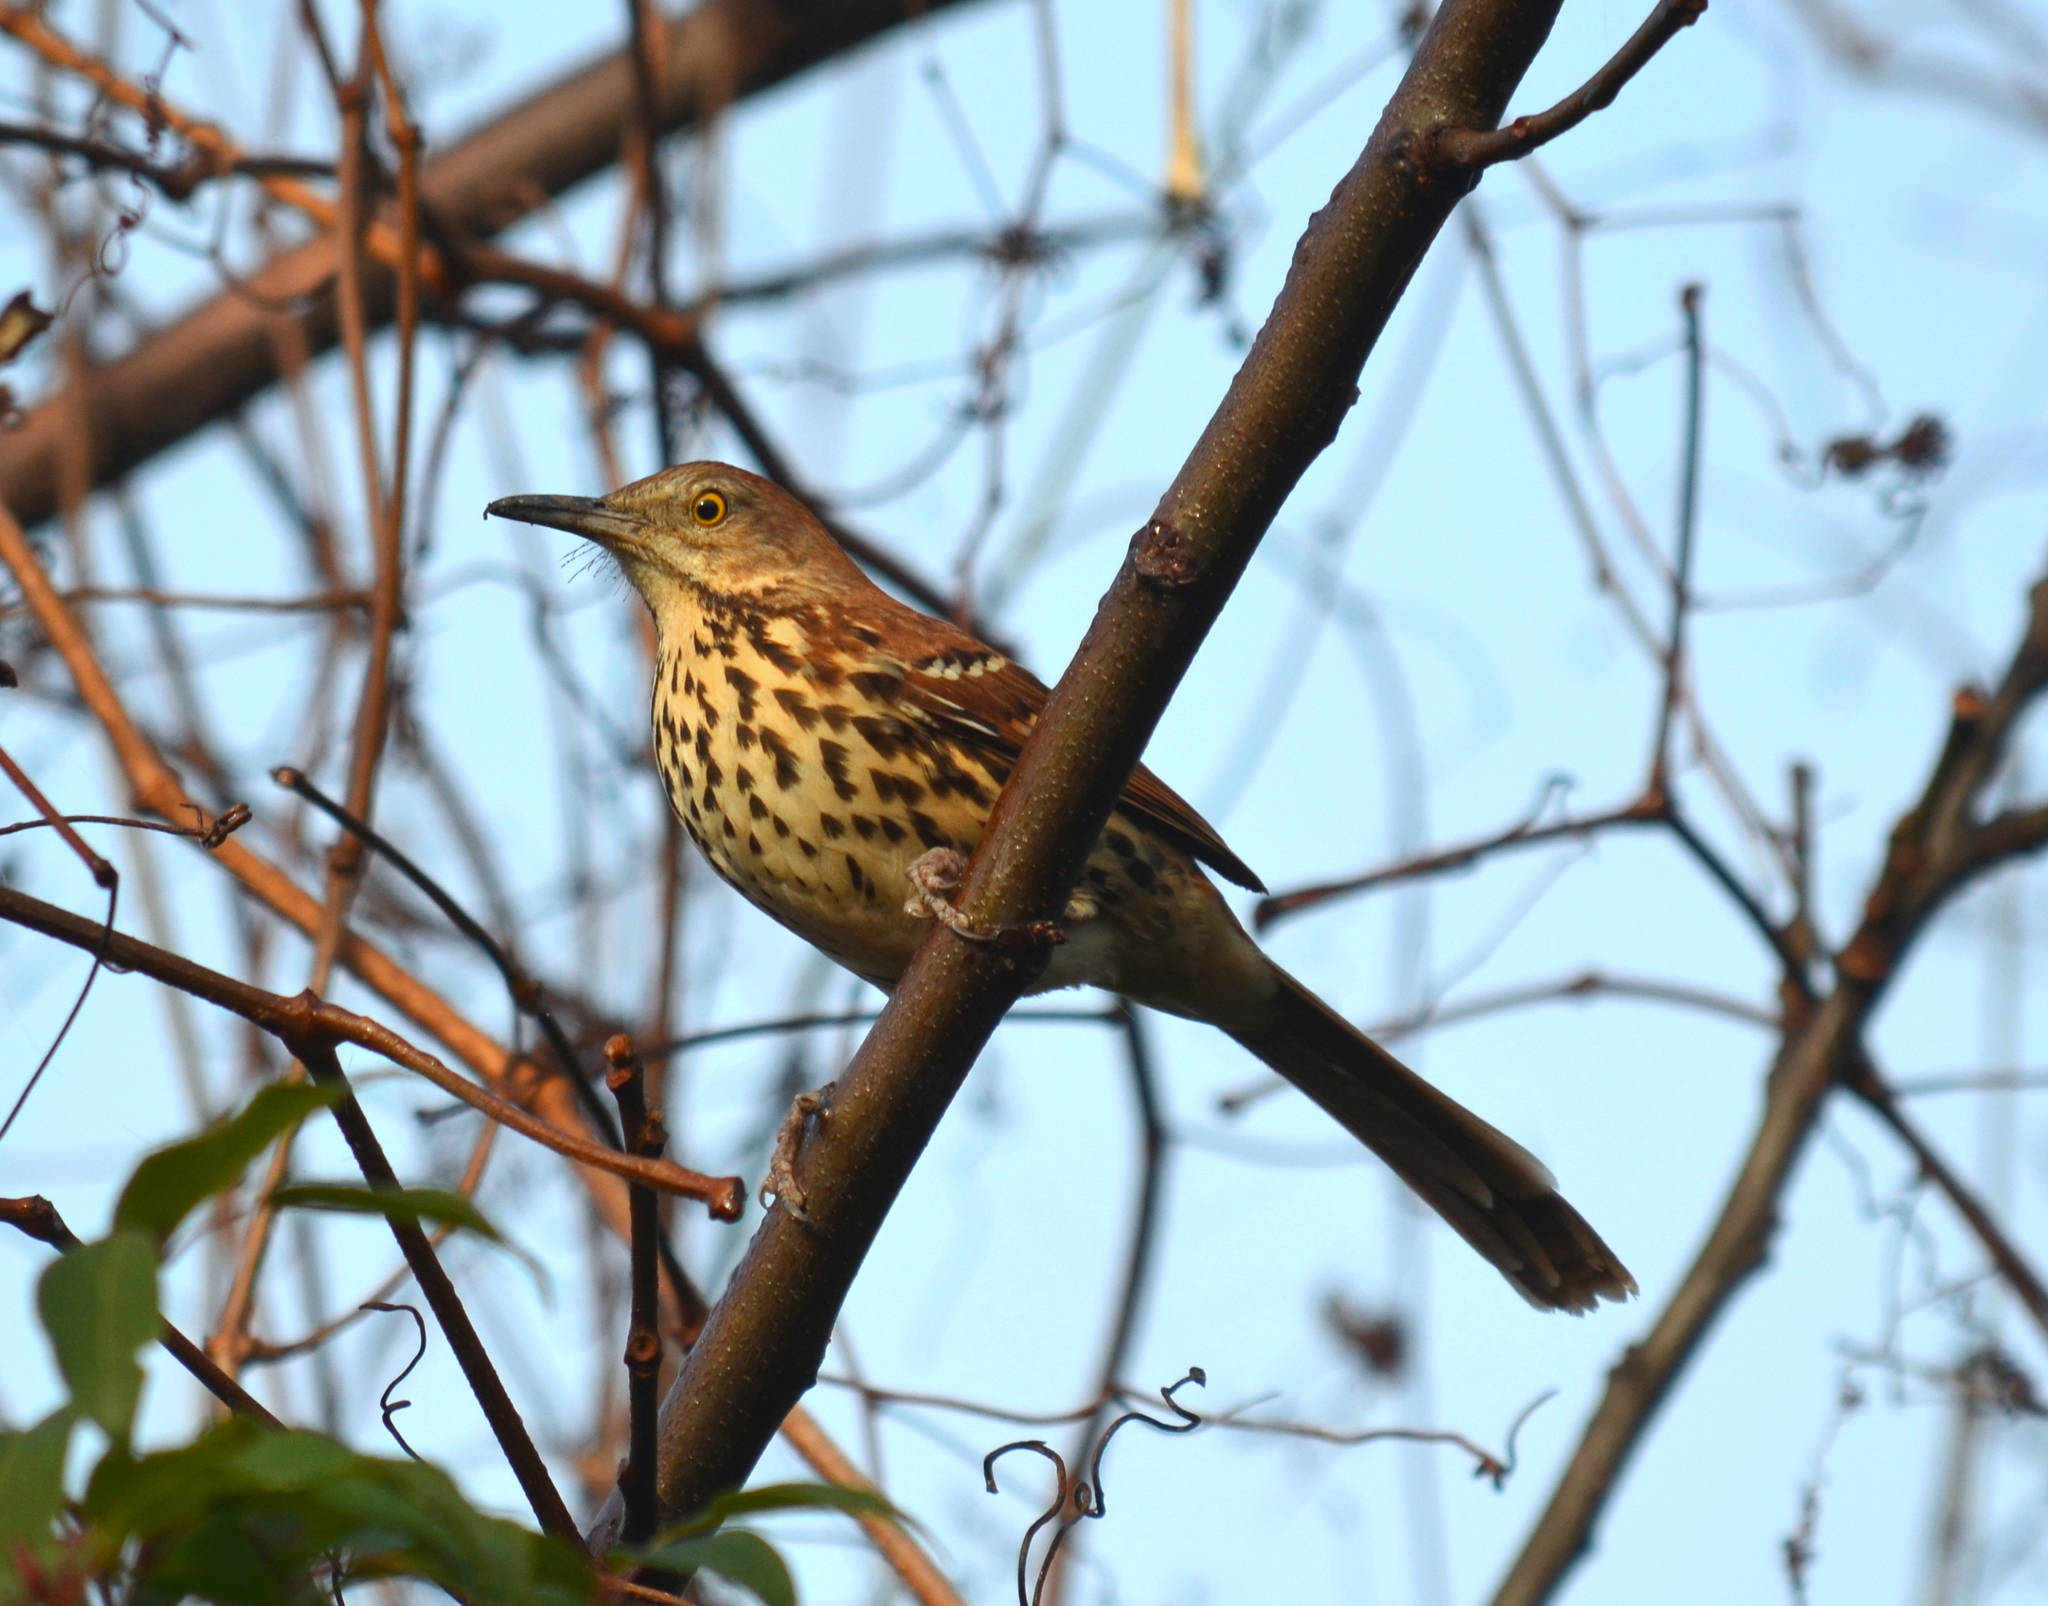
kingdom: Animalia
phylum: Chordata
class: Aves
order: Passeriformes
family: Mimidae
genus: Toxostoma
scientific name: Toxostoma rufum
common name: Brown thrasher
